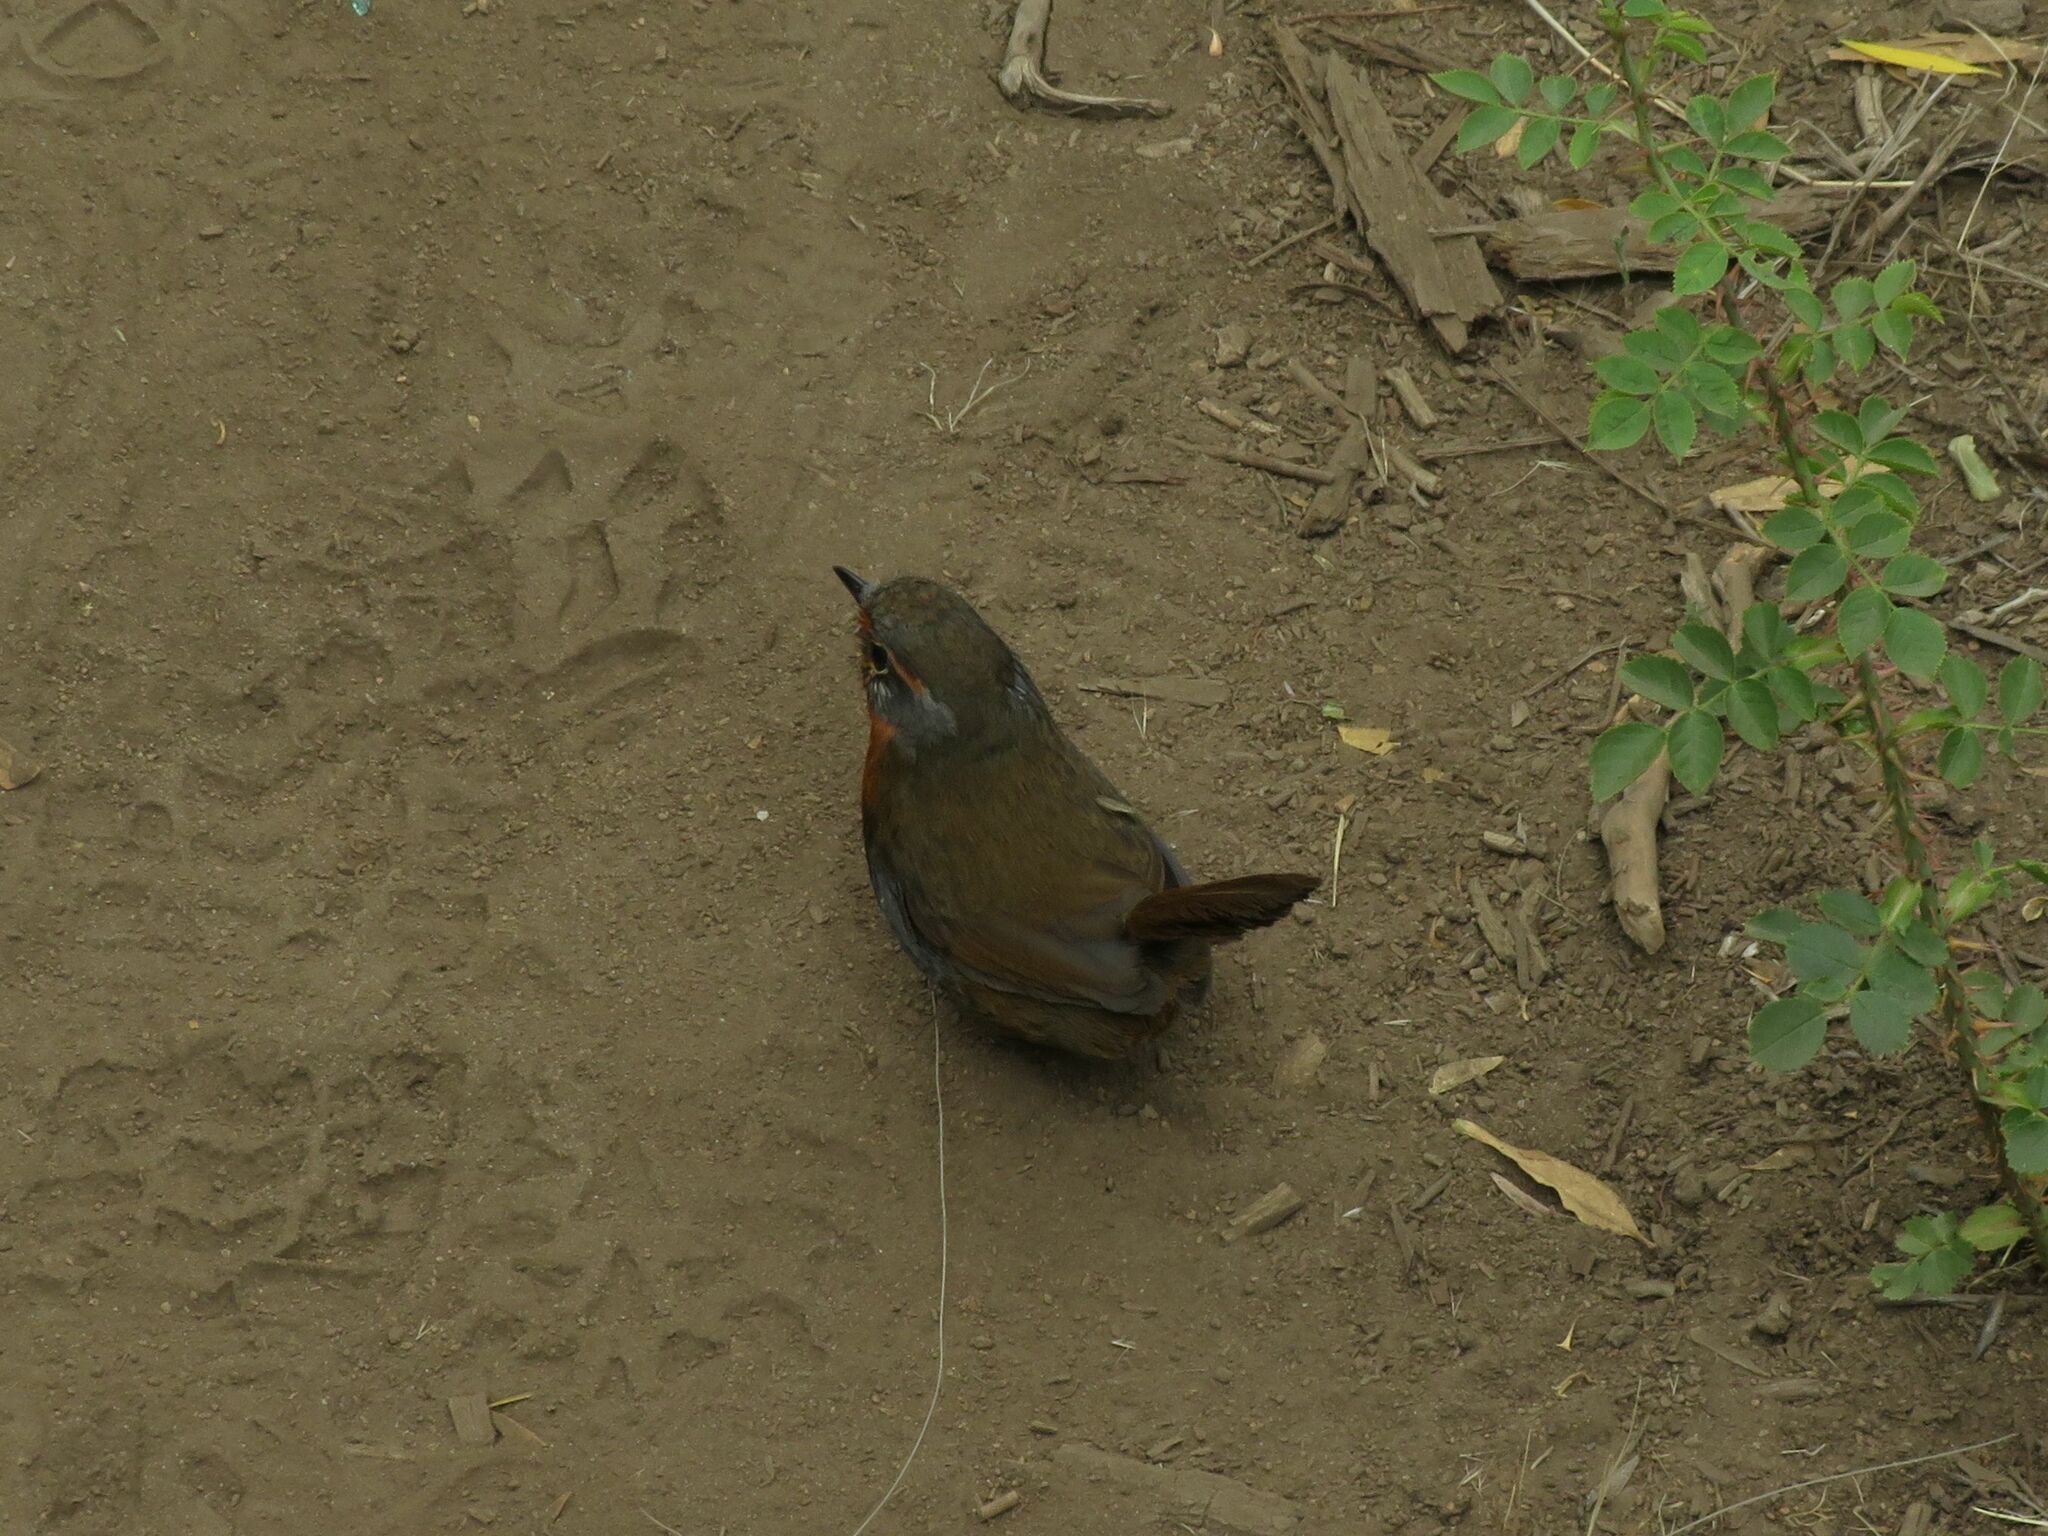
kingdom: Animalia
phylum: Chordata
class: Aves
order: Passeriformes
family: Rhinocryptidae
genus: Scelorchilus
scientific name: Scelorchilus rubecula
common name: Chucao tapaculo
